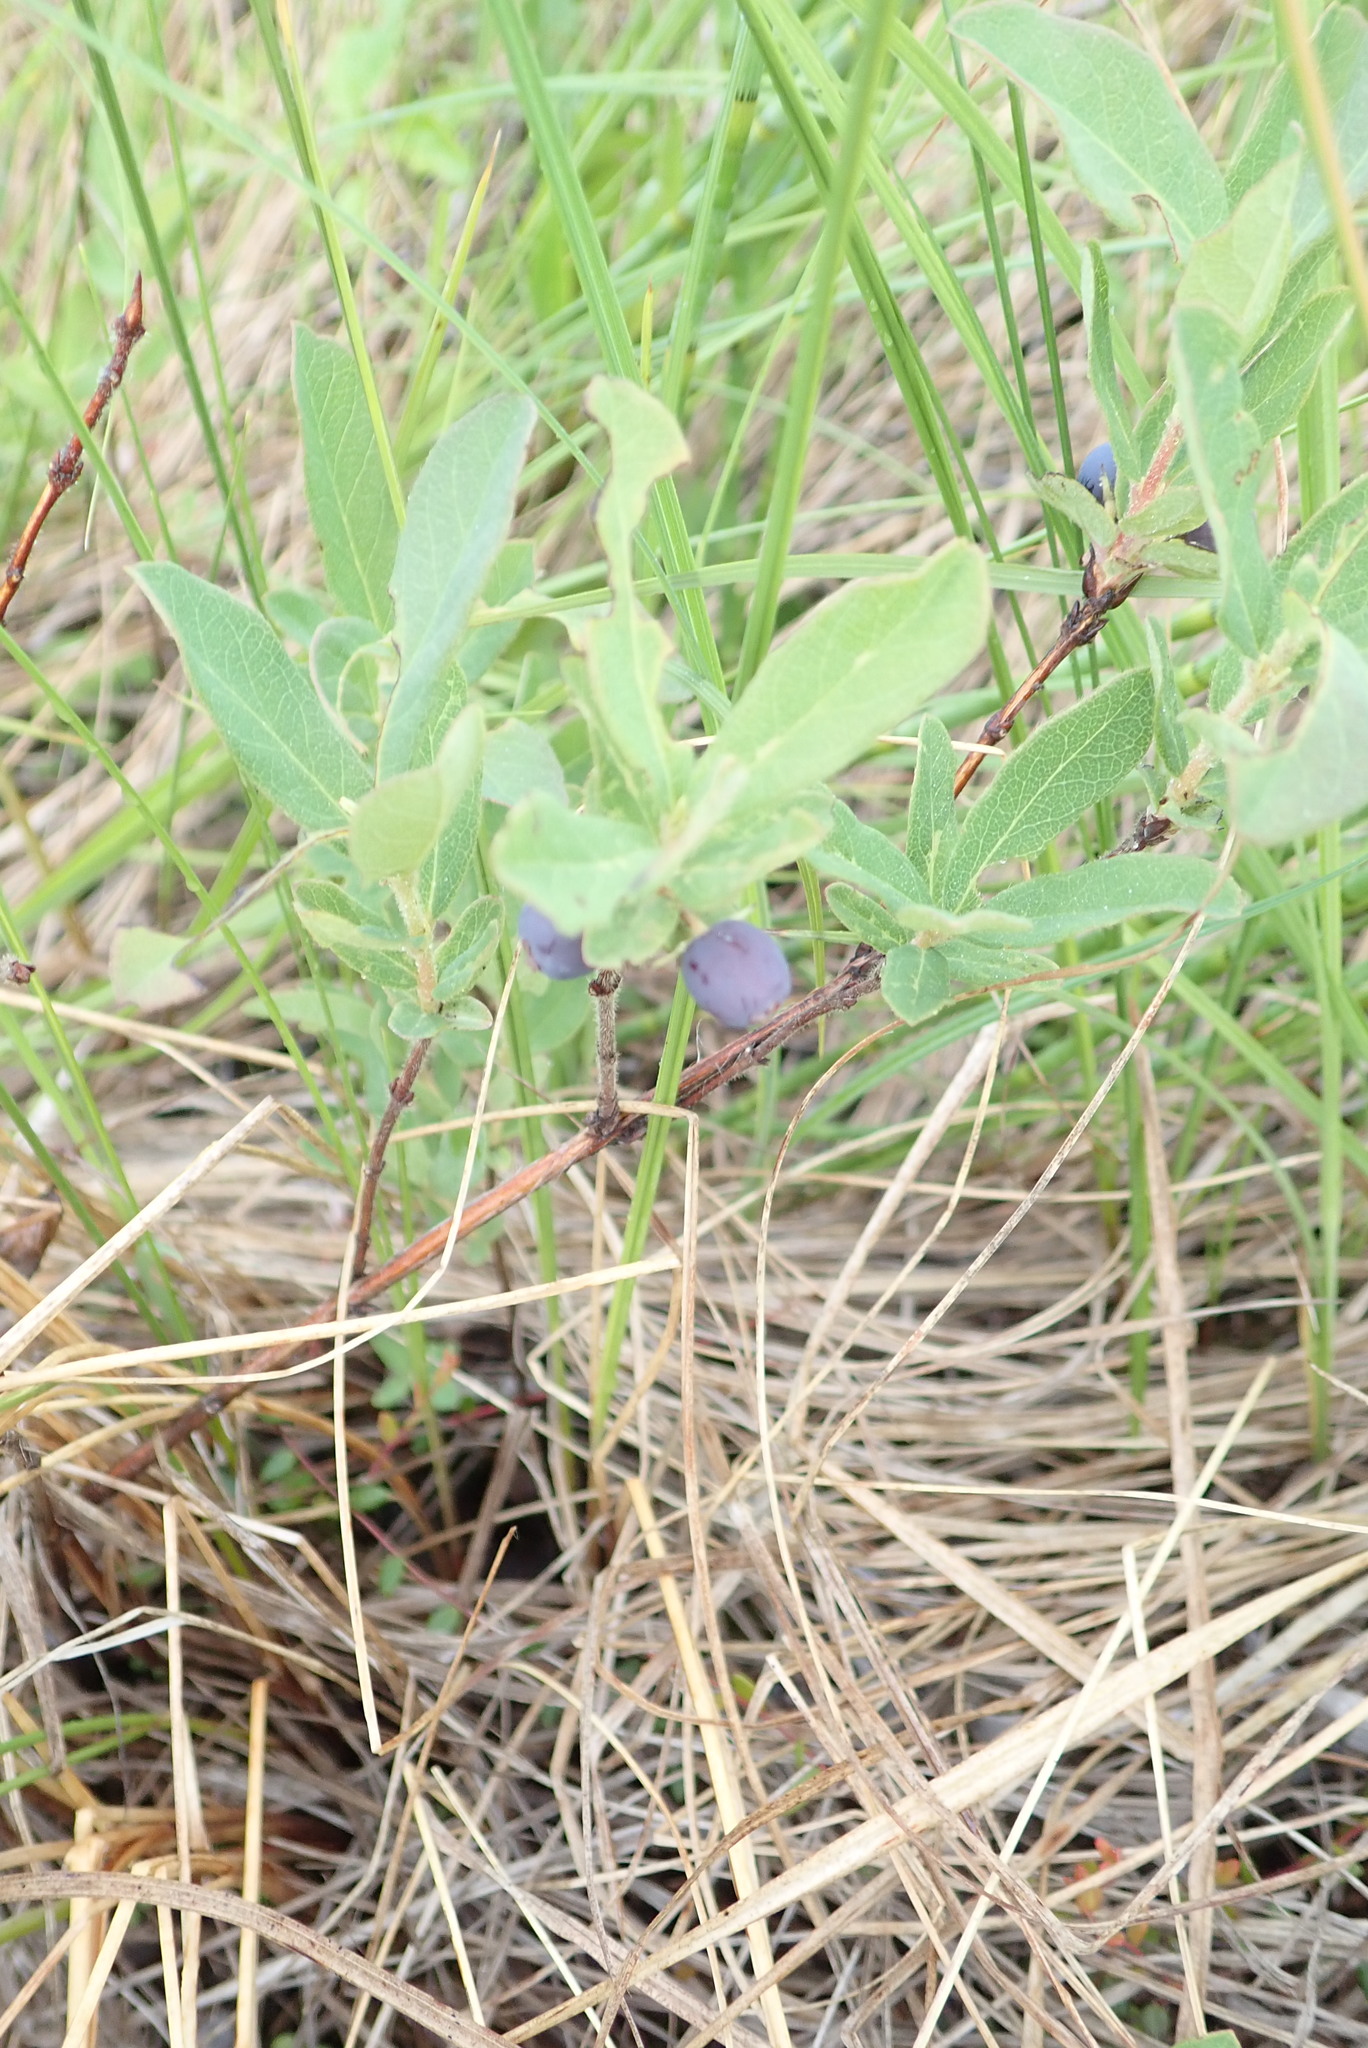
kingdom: Plantae
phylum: Tracheophyta
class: Magnoliopsida
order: Dipsacales
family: Caprifoliaceae
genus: Lonicera
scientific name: Lonicera villosa
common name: Mountain fly-honeysuckle
